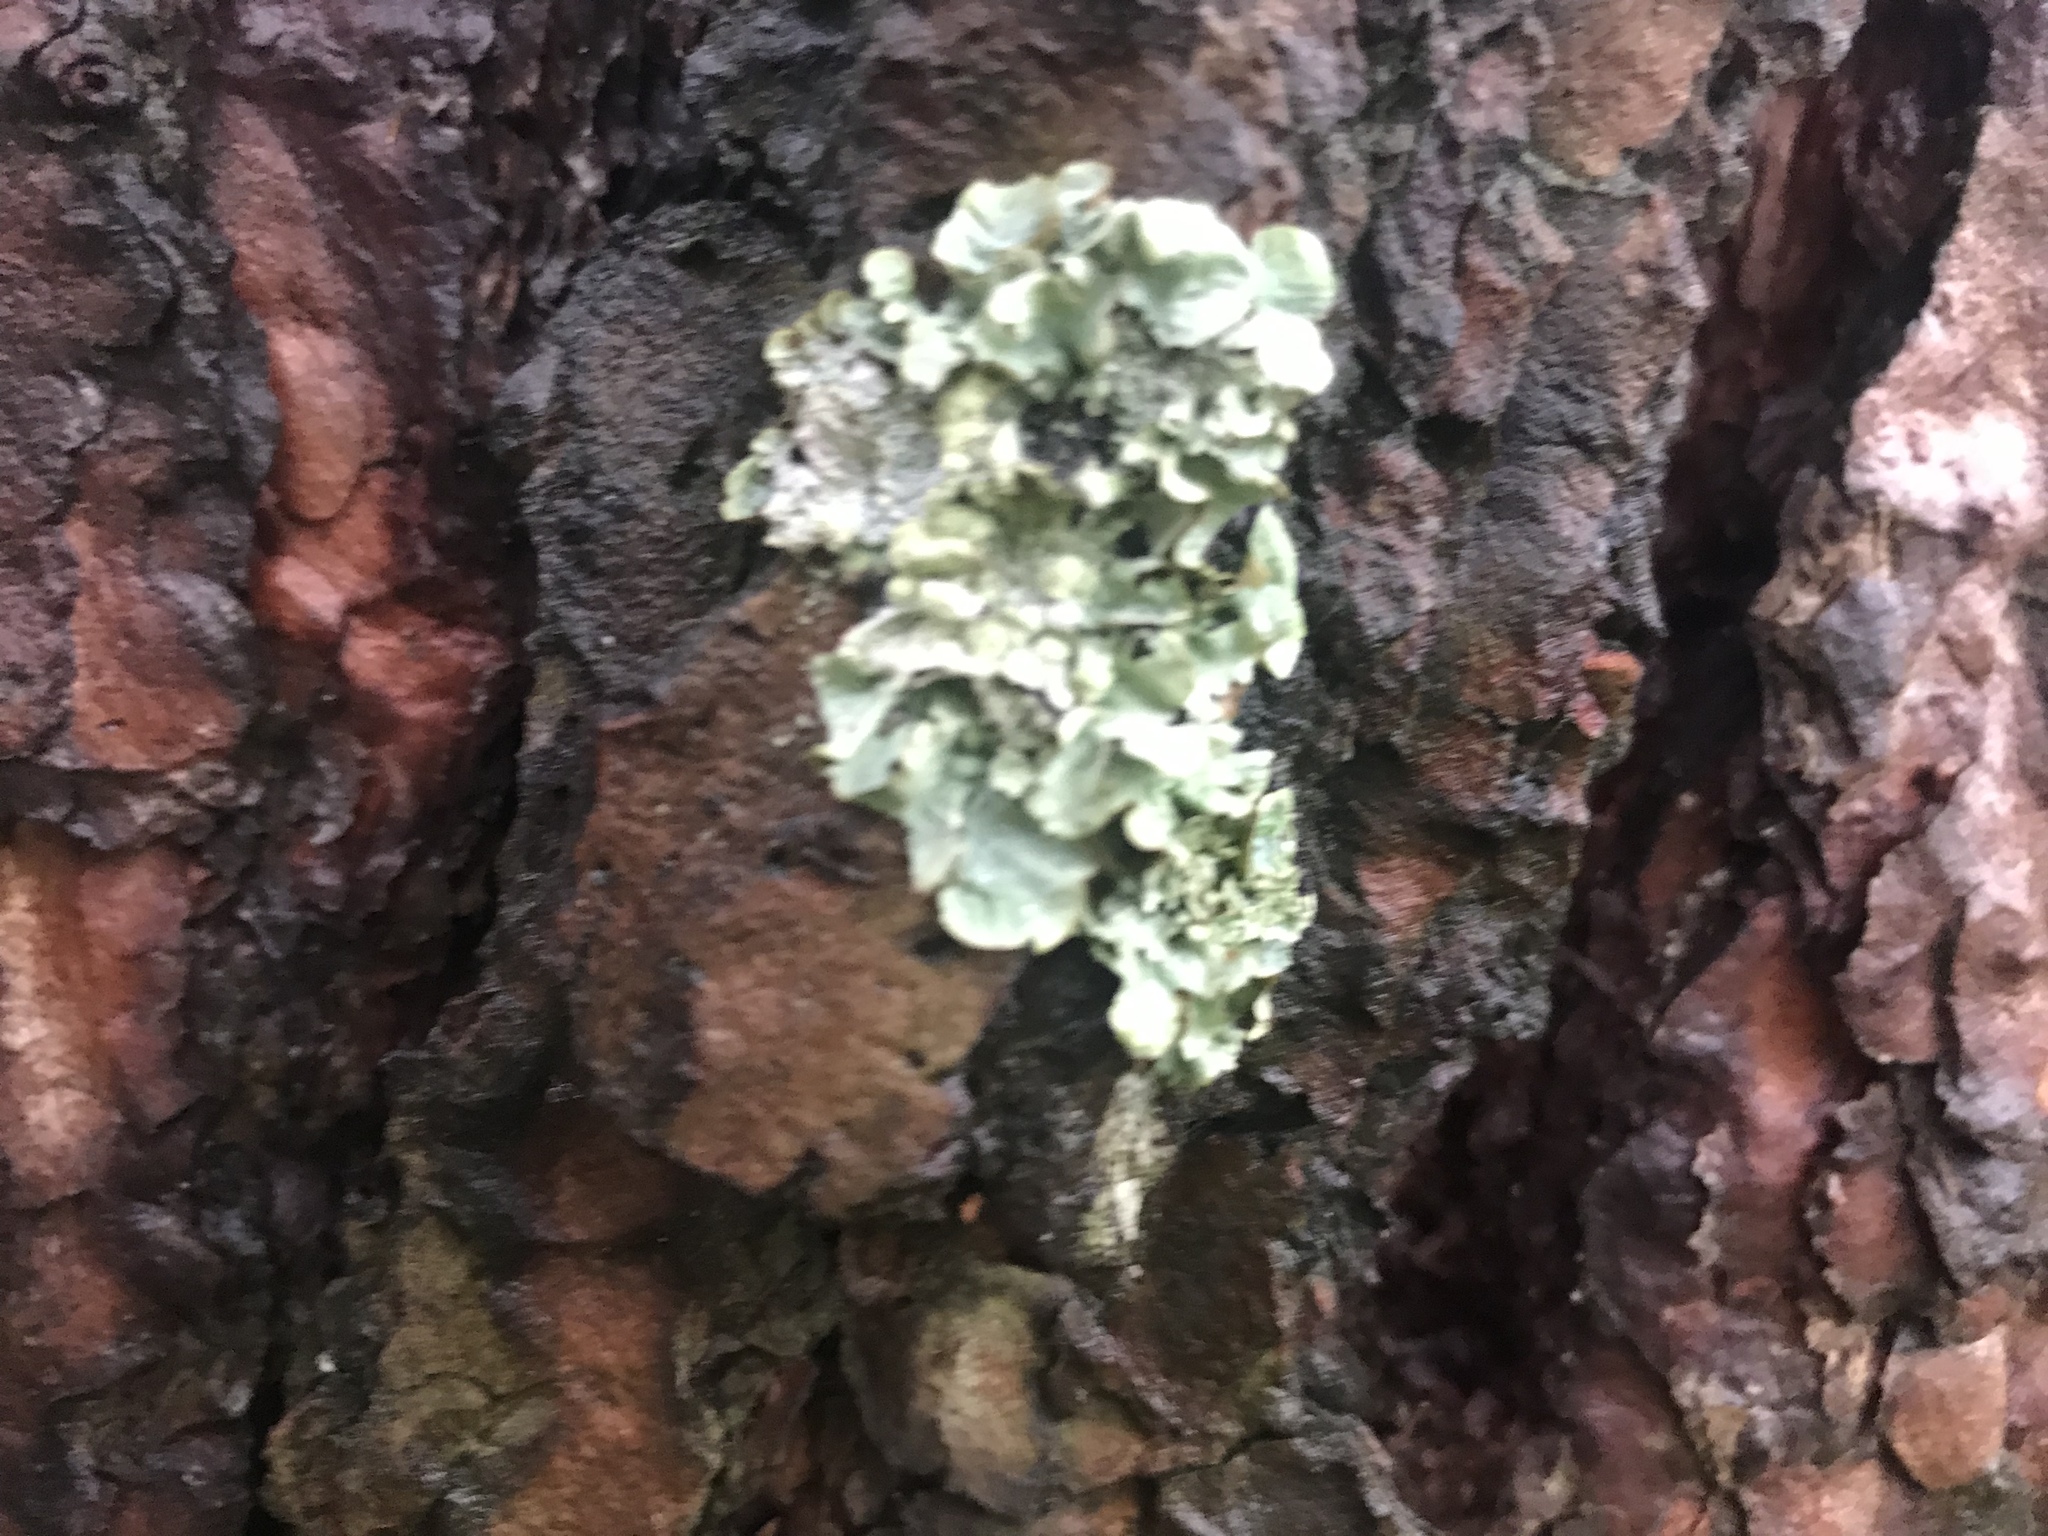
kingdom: Fungi
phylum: Ascomycota
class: Lecanoromycetes
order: Lecanorales
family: Parmeliaceae
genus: Flavoparmelia
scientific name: Flavoparmelia caperata
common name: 40-mile per hour lichen
